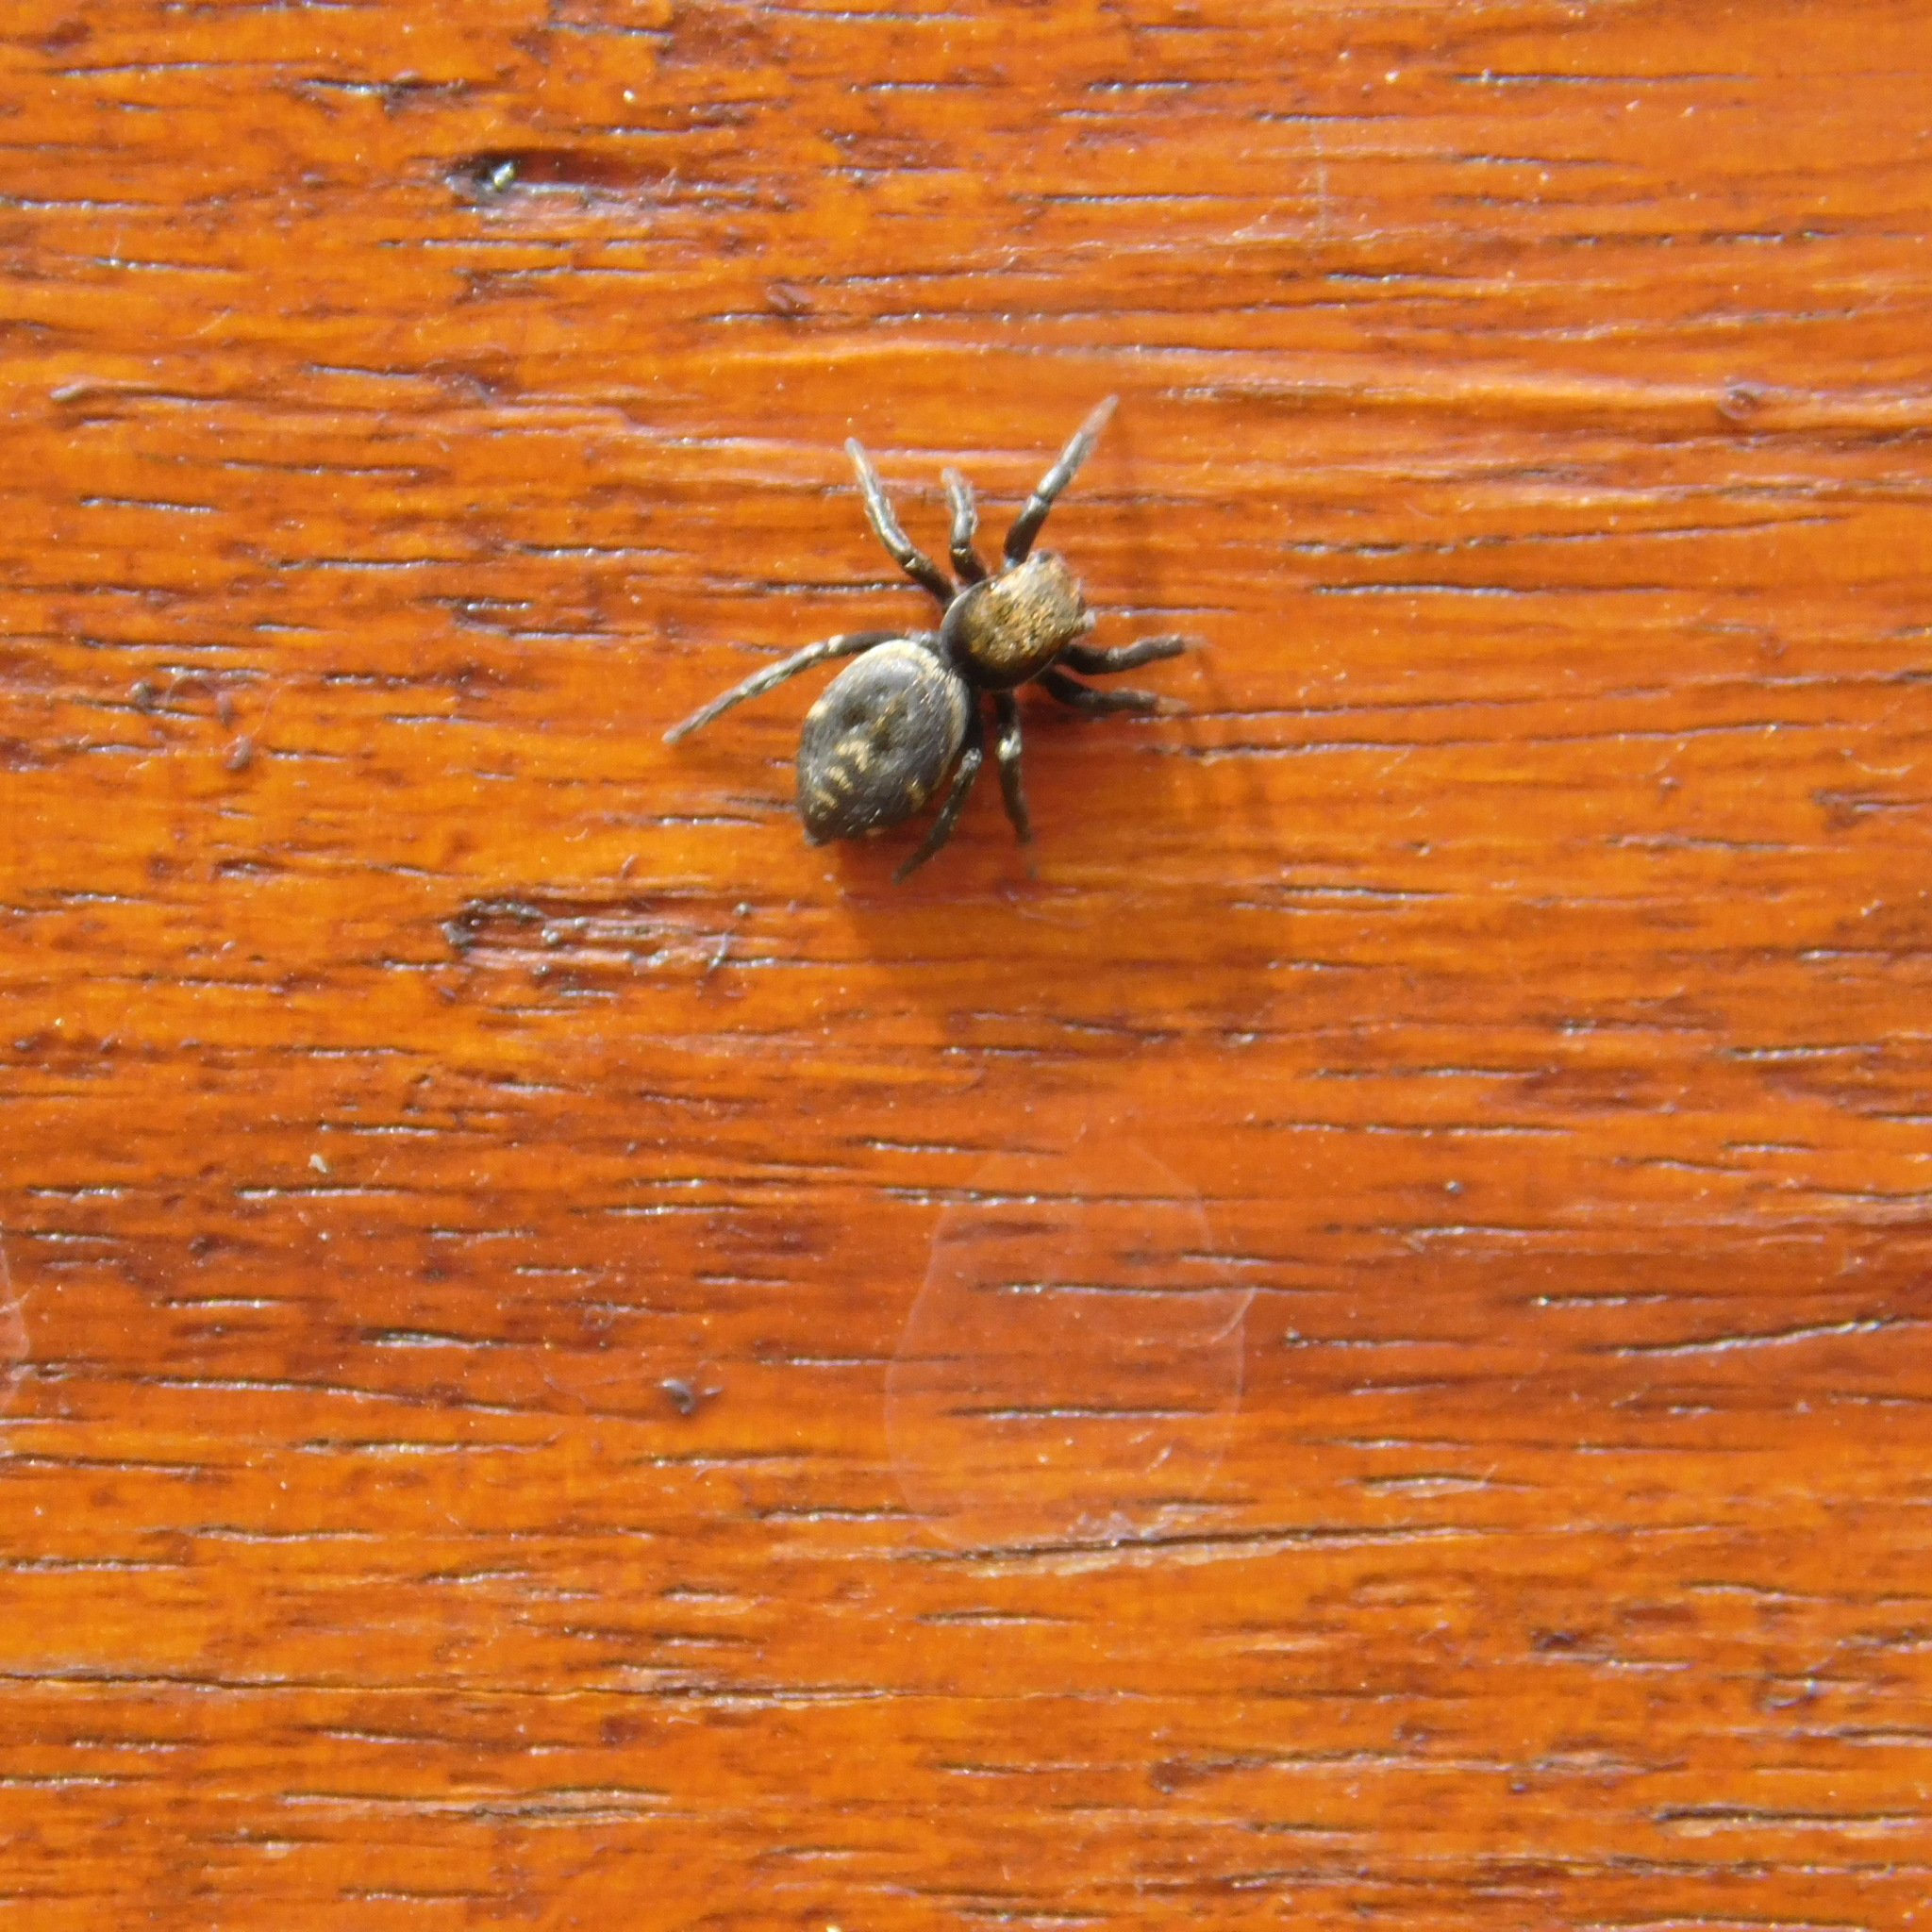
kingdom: Animalia
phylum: Arthropoda
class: Arachnida
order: Araneae
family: Salticidae
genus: Phiale
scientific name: Phiale roburifoliata
